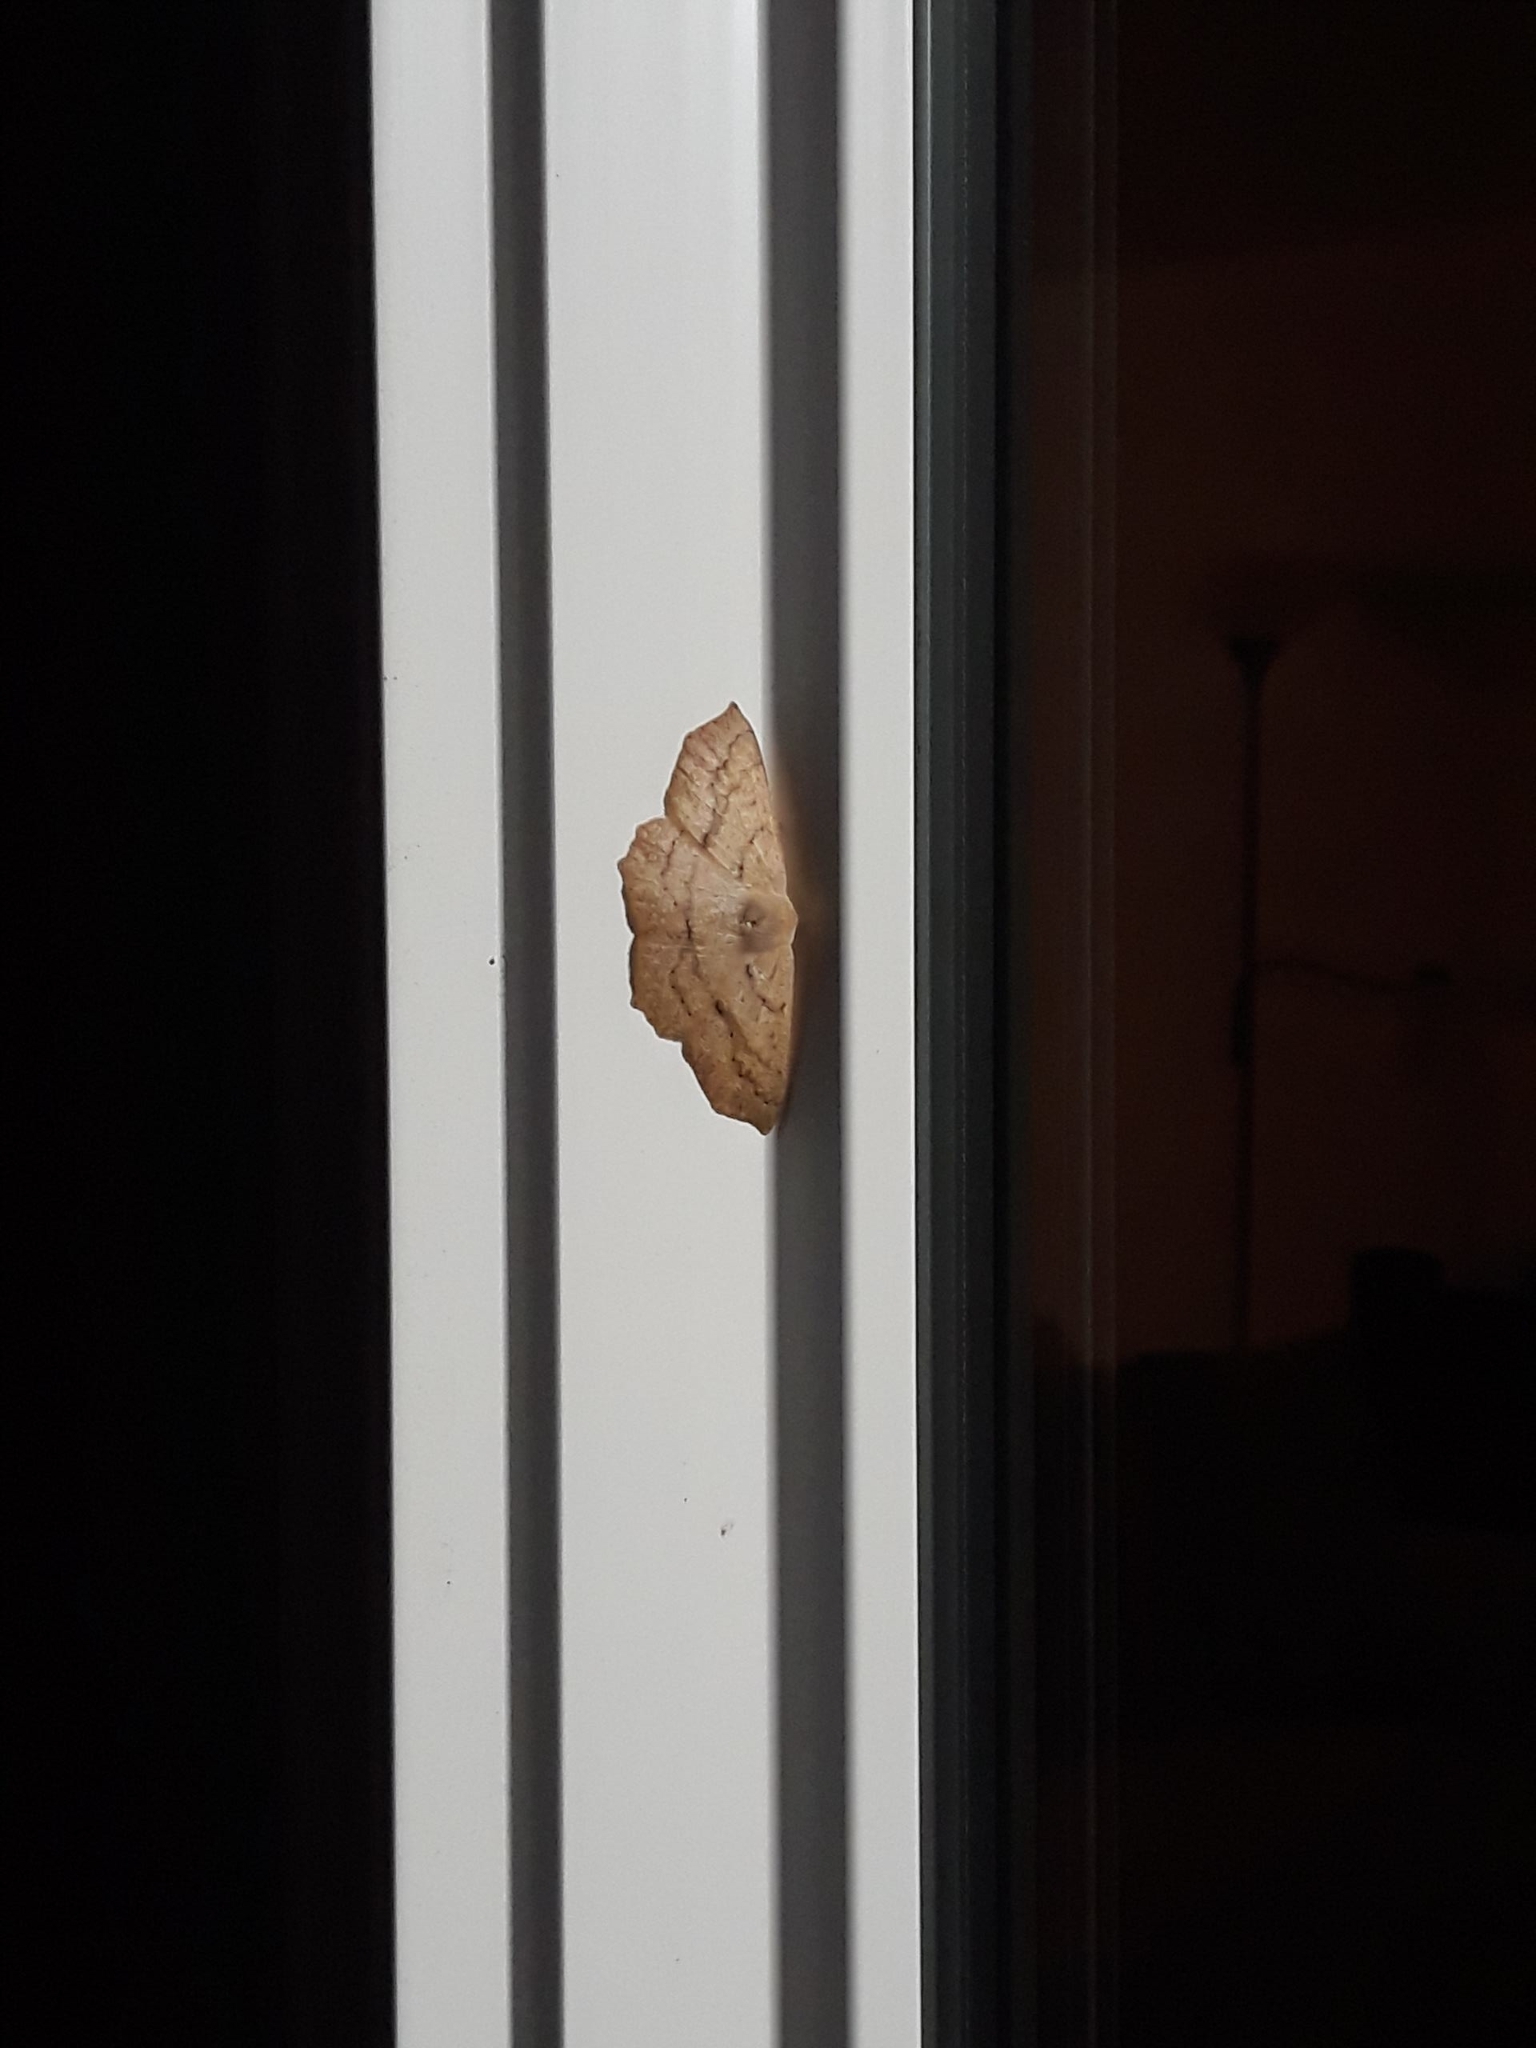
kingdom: Animalia
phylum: Arthropoda
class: Insecta
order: Lepidoptera
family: Geometridae
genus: Sabulodes
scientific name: Sabulodes aegrotata
